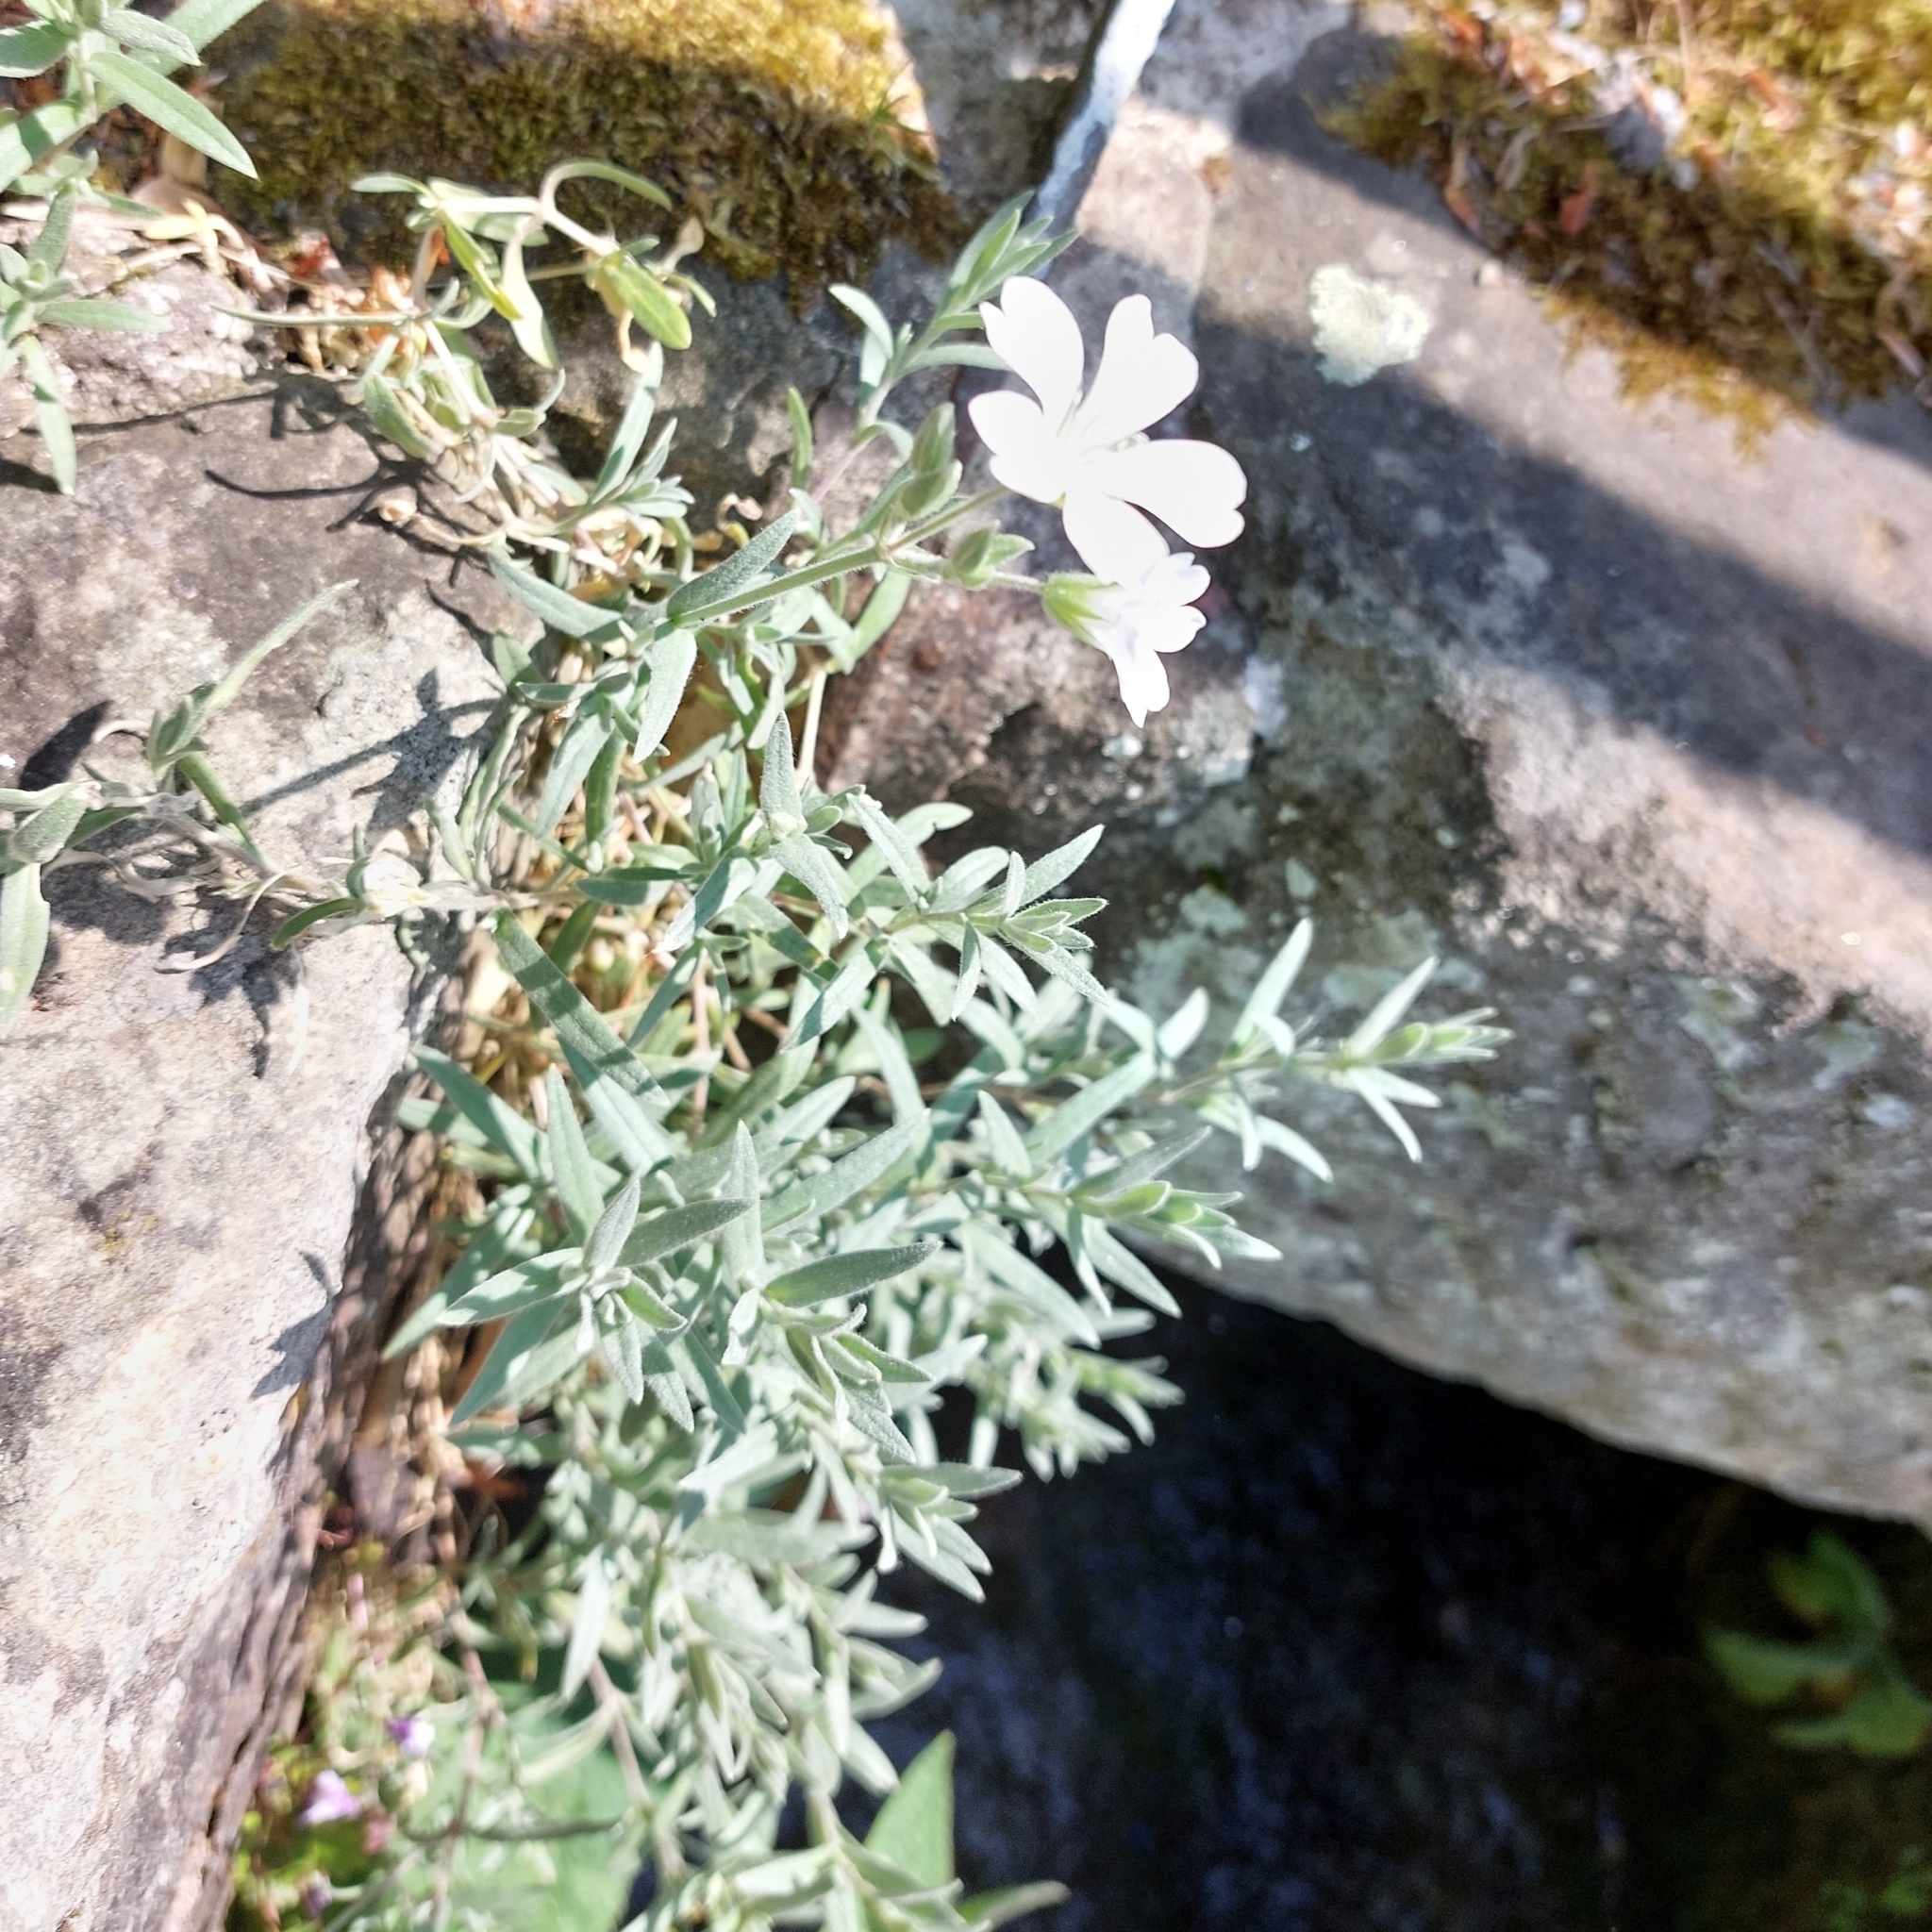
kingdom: Plantae
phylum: Tracheophyta
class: Magnoliopsida
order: Caryophyllales
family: Caryophyllaceae
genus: Cerastium
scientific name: Cerastium tomentosum
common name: Snow-in-summer
